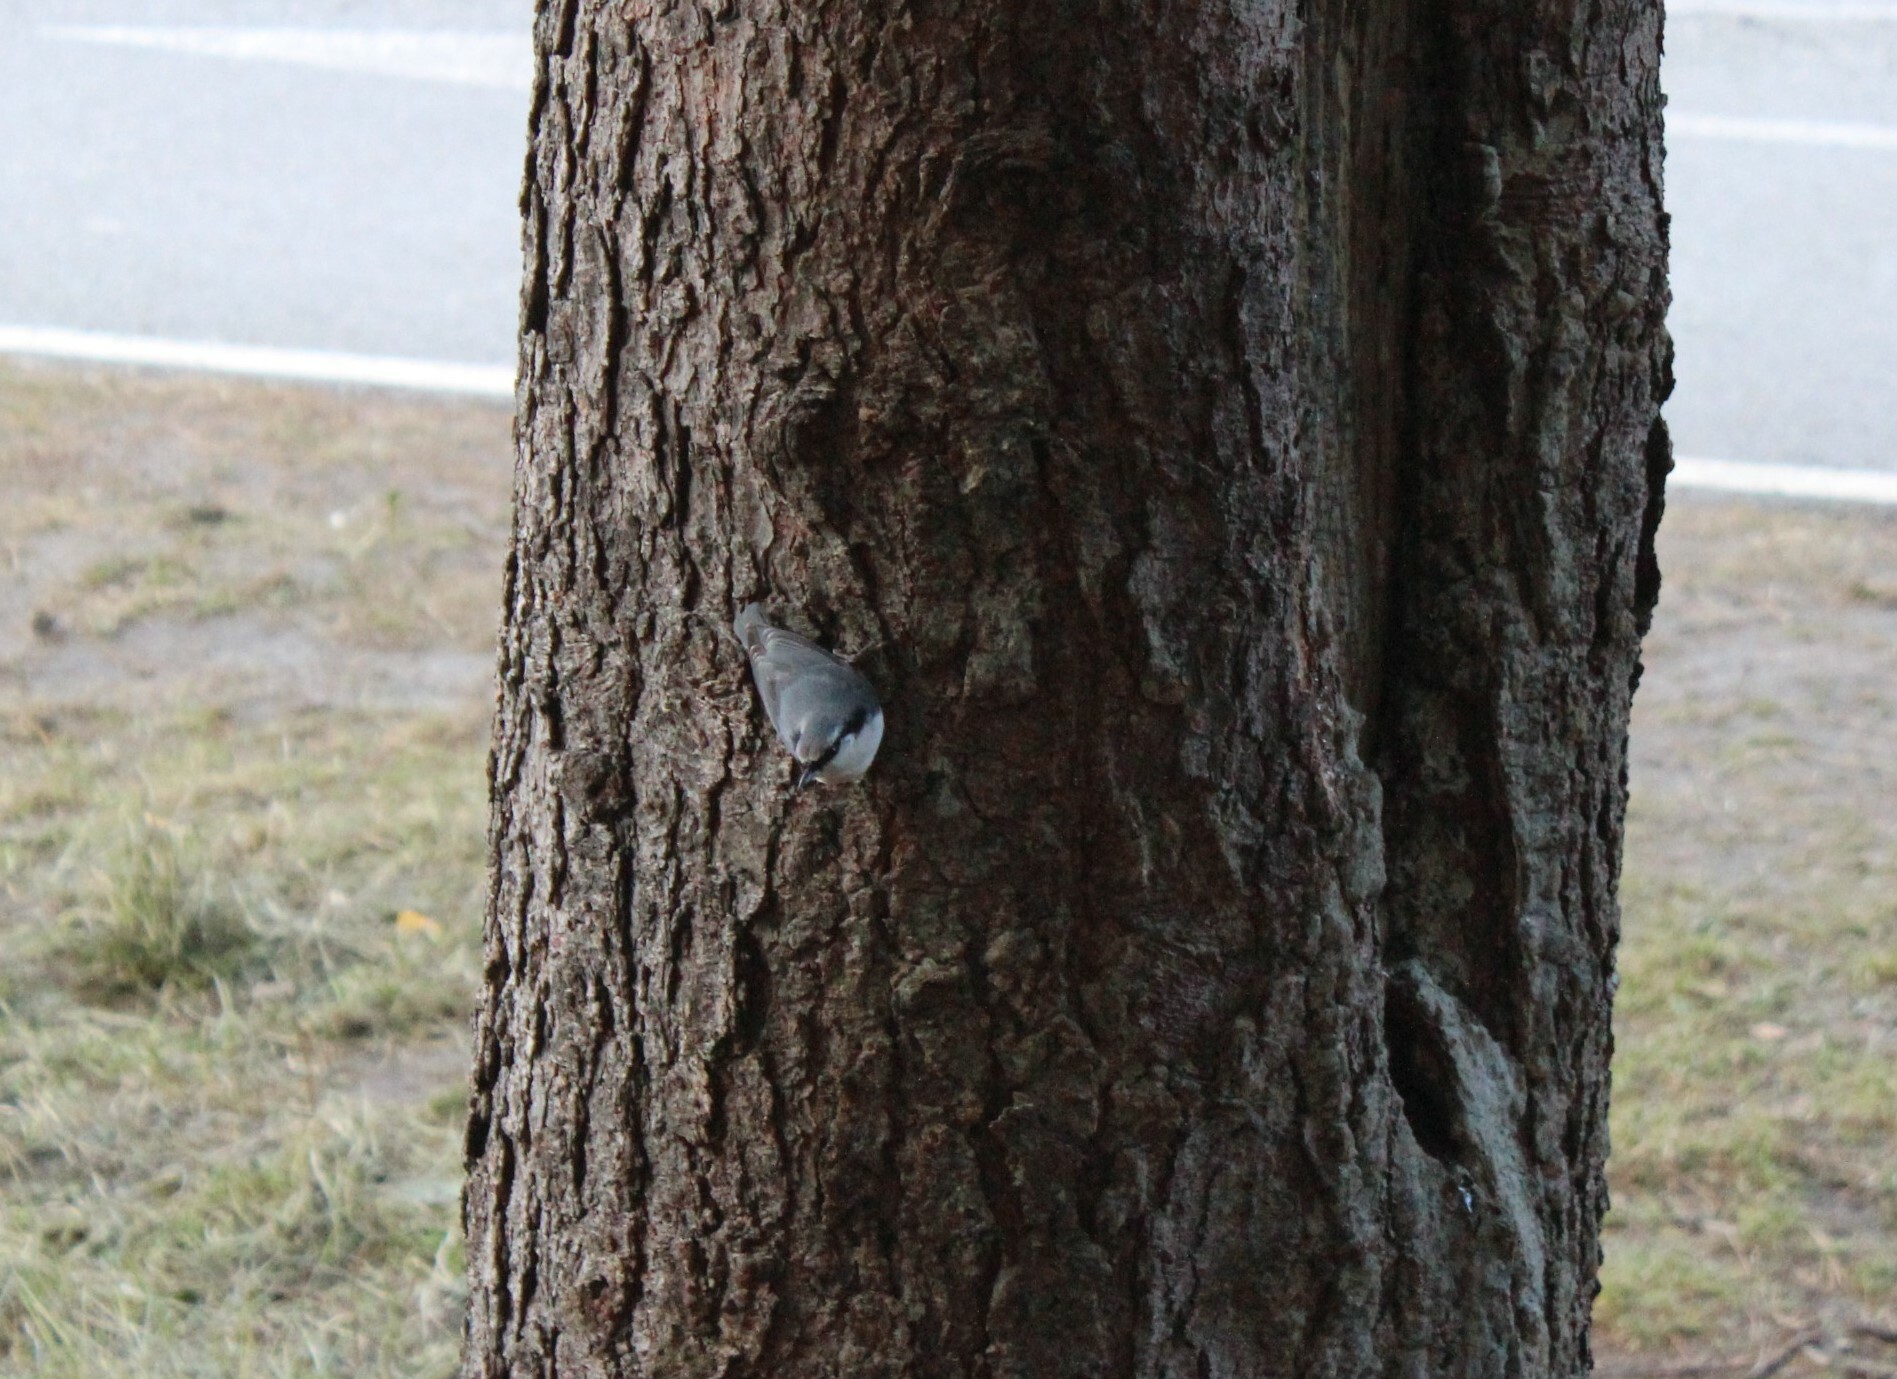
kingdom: Animalia
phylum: Chordata
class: Aves
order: Passeriformes
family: Sittidae
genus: Sitta
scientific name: Sitta europaea
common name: Eurasian nuthatch
